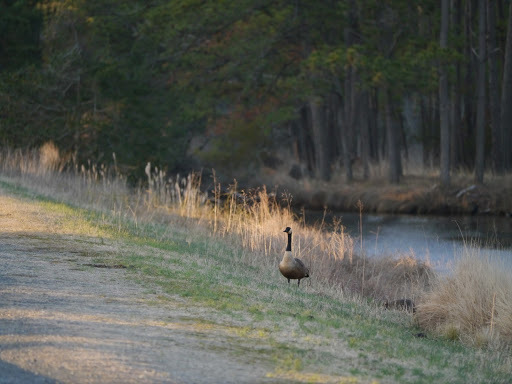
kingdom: Animalia
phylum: Chordata
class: Aves
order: Anseriformes
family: Anatidae
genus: Branta
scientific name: Branta canadensis
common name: Canada goose
